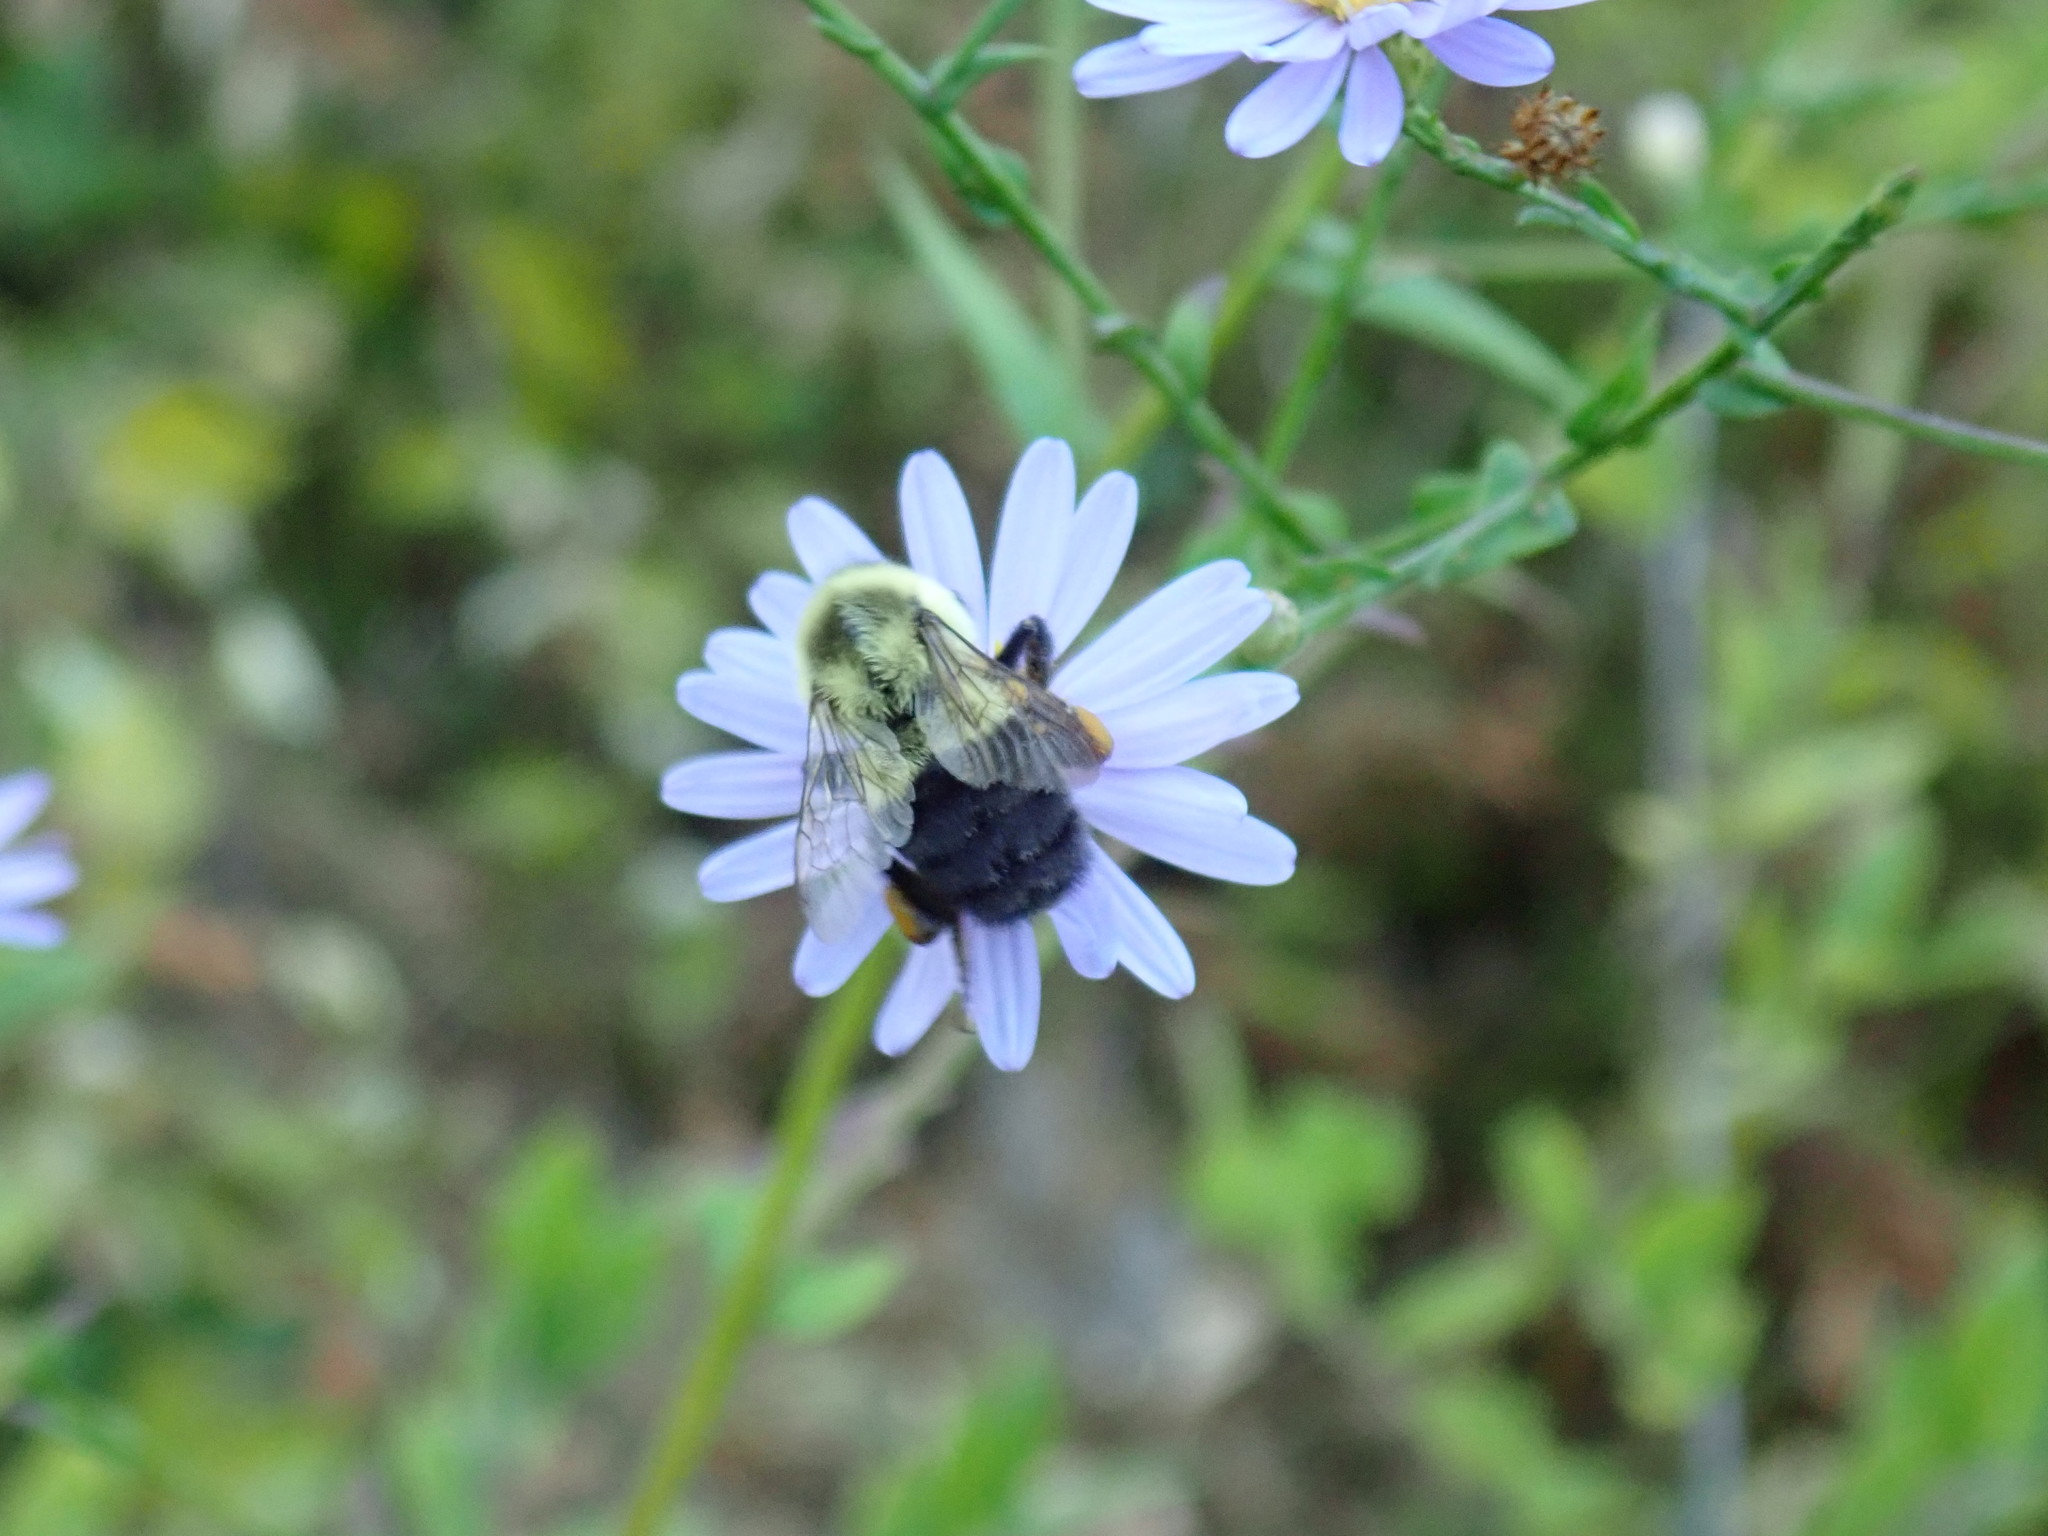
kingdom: Animalia
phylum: Arthropoda
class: Insecta
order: Hymenoptera
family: Apidae
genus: Bombus
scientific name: Bombus impatiens
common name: Common eastern bumble bee
